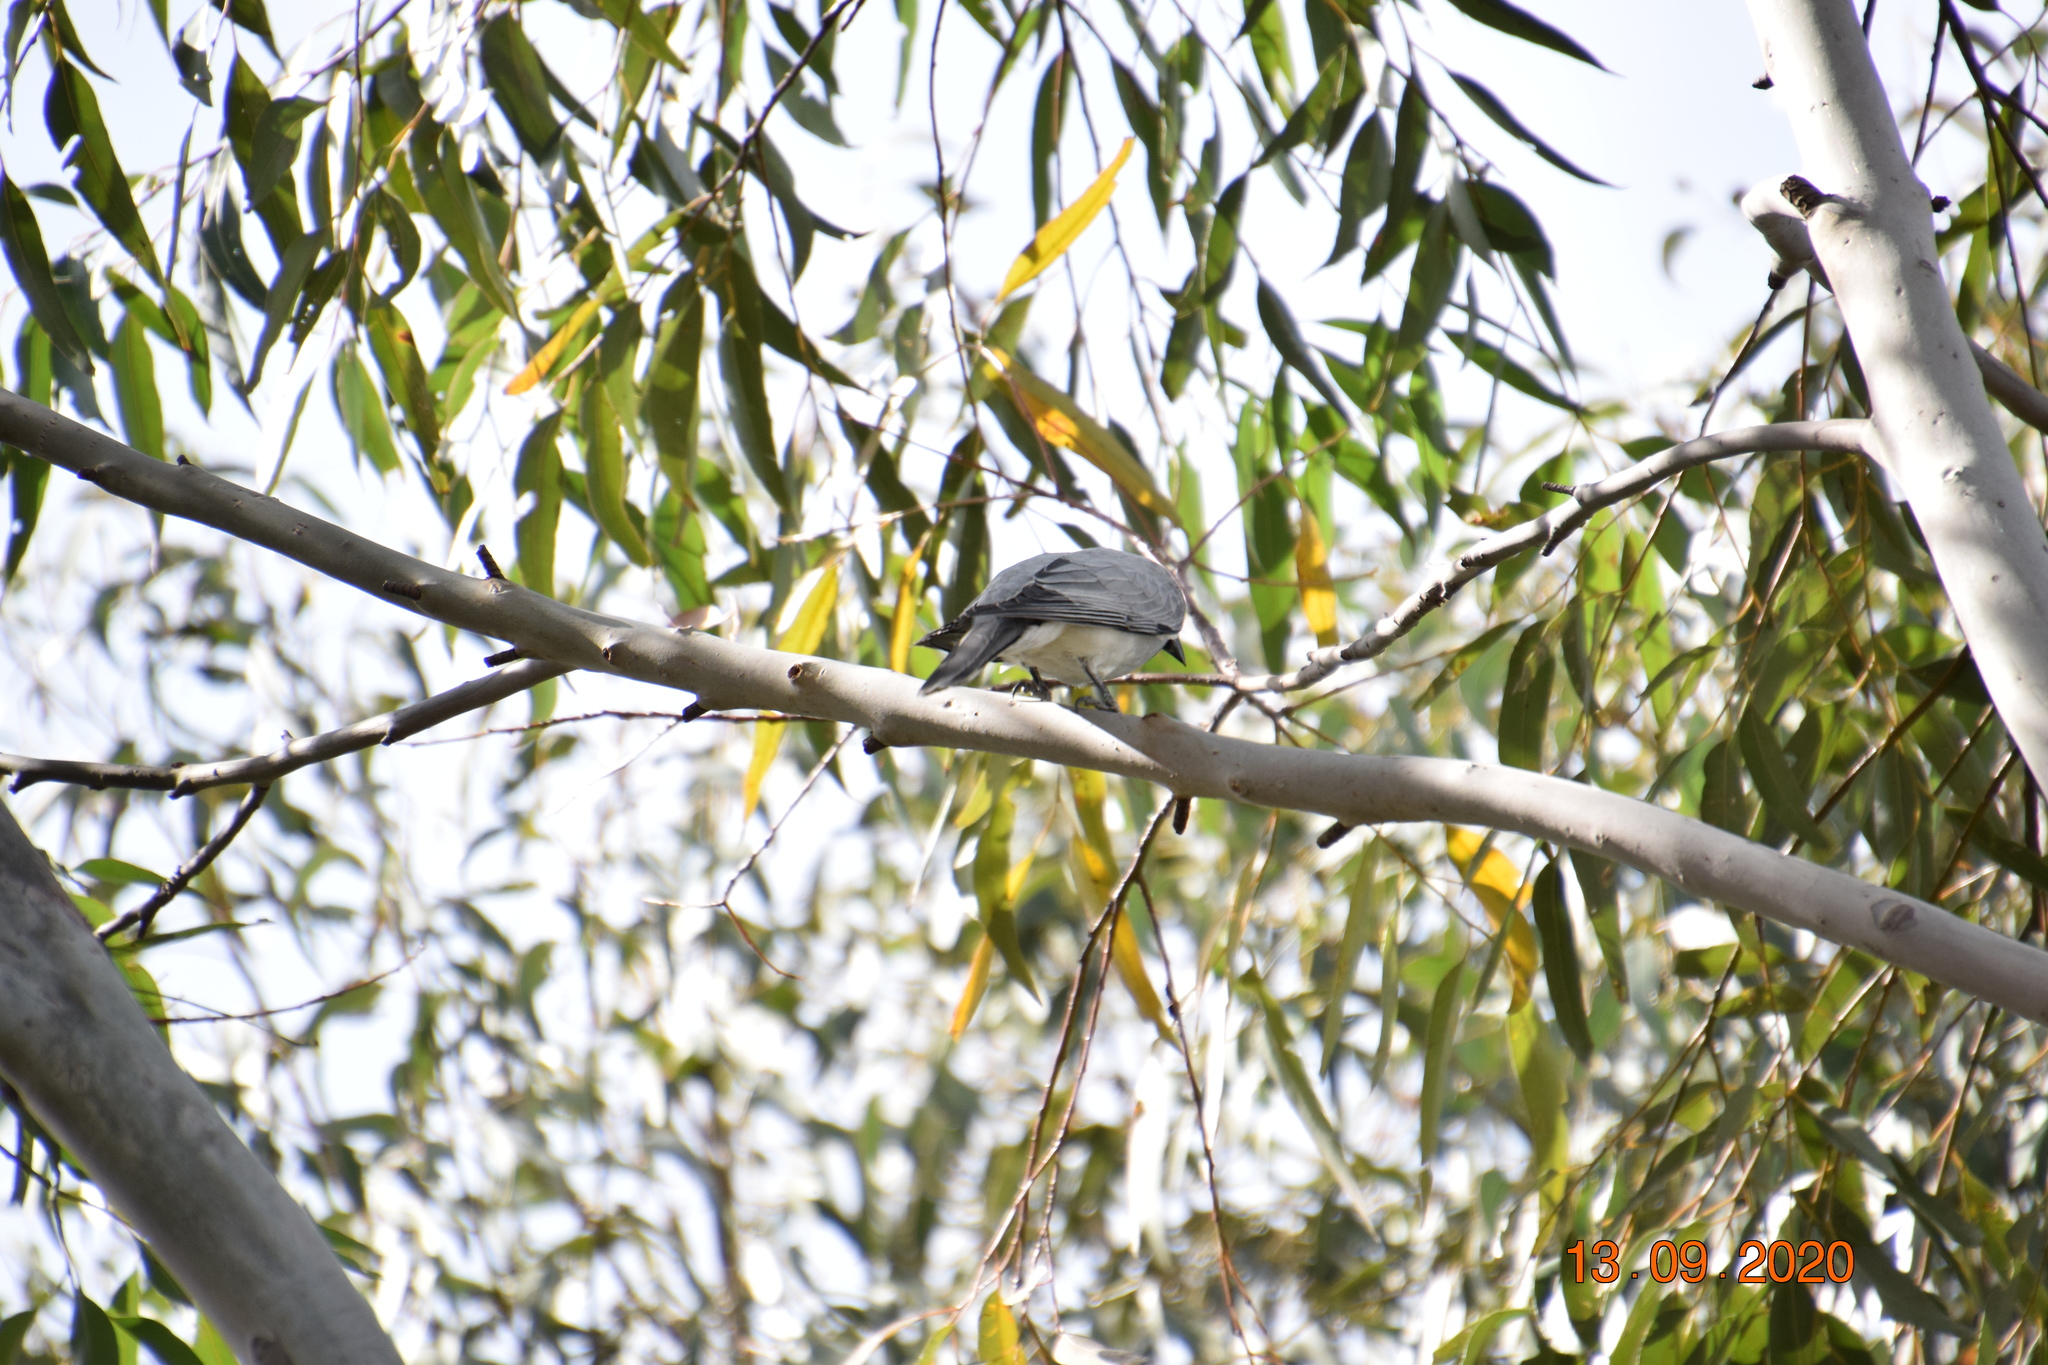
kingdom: Animalia
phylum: Chordata
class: Aves
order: Passeriformes
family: Campephagidae
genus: Coracina
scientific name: Coracina novaehollandiae
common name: Black-faced cuckooshrike
